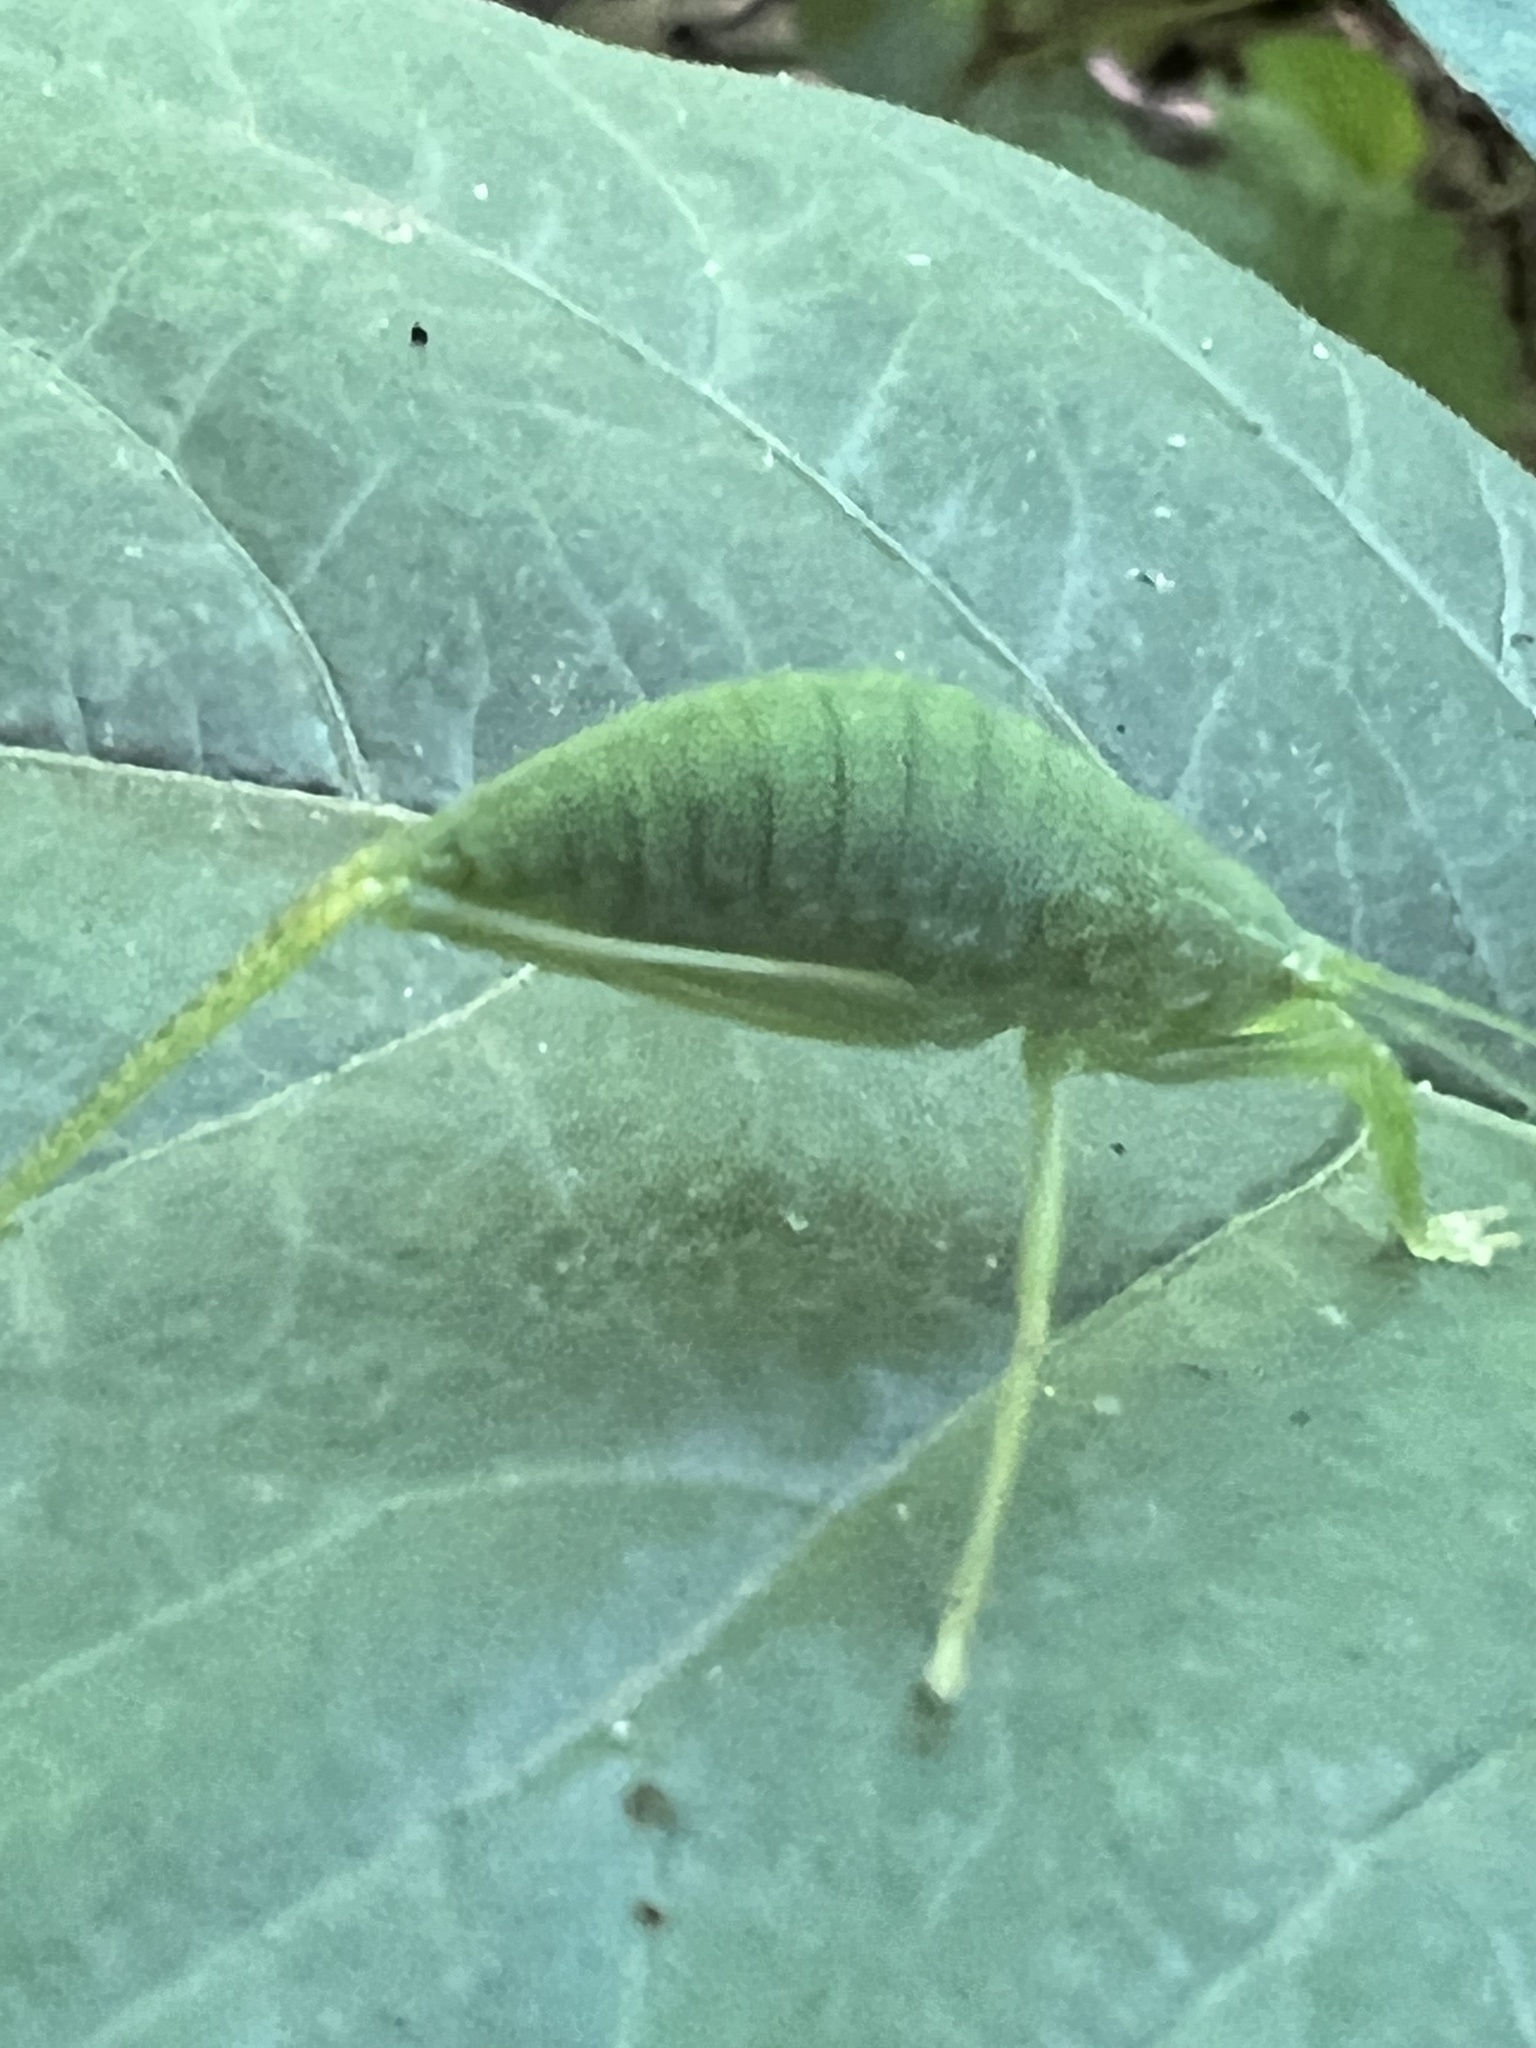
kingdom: Animalia
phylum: Arthropoda
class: Insecta
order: Orthoptera
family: Tettigoniidae
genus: Pterophylla
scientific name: Pterophylla camellifolia
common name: Common true katydid
